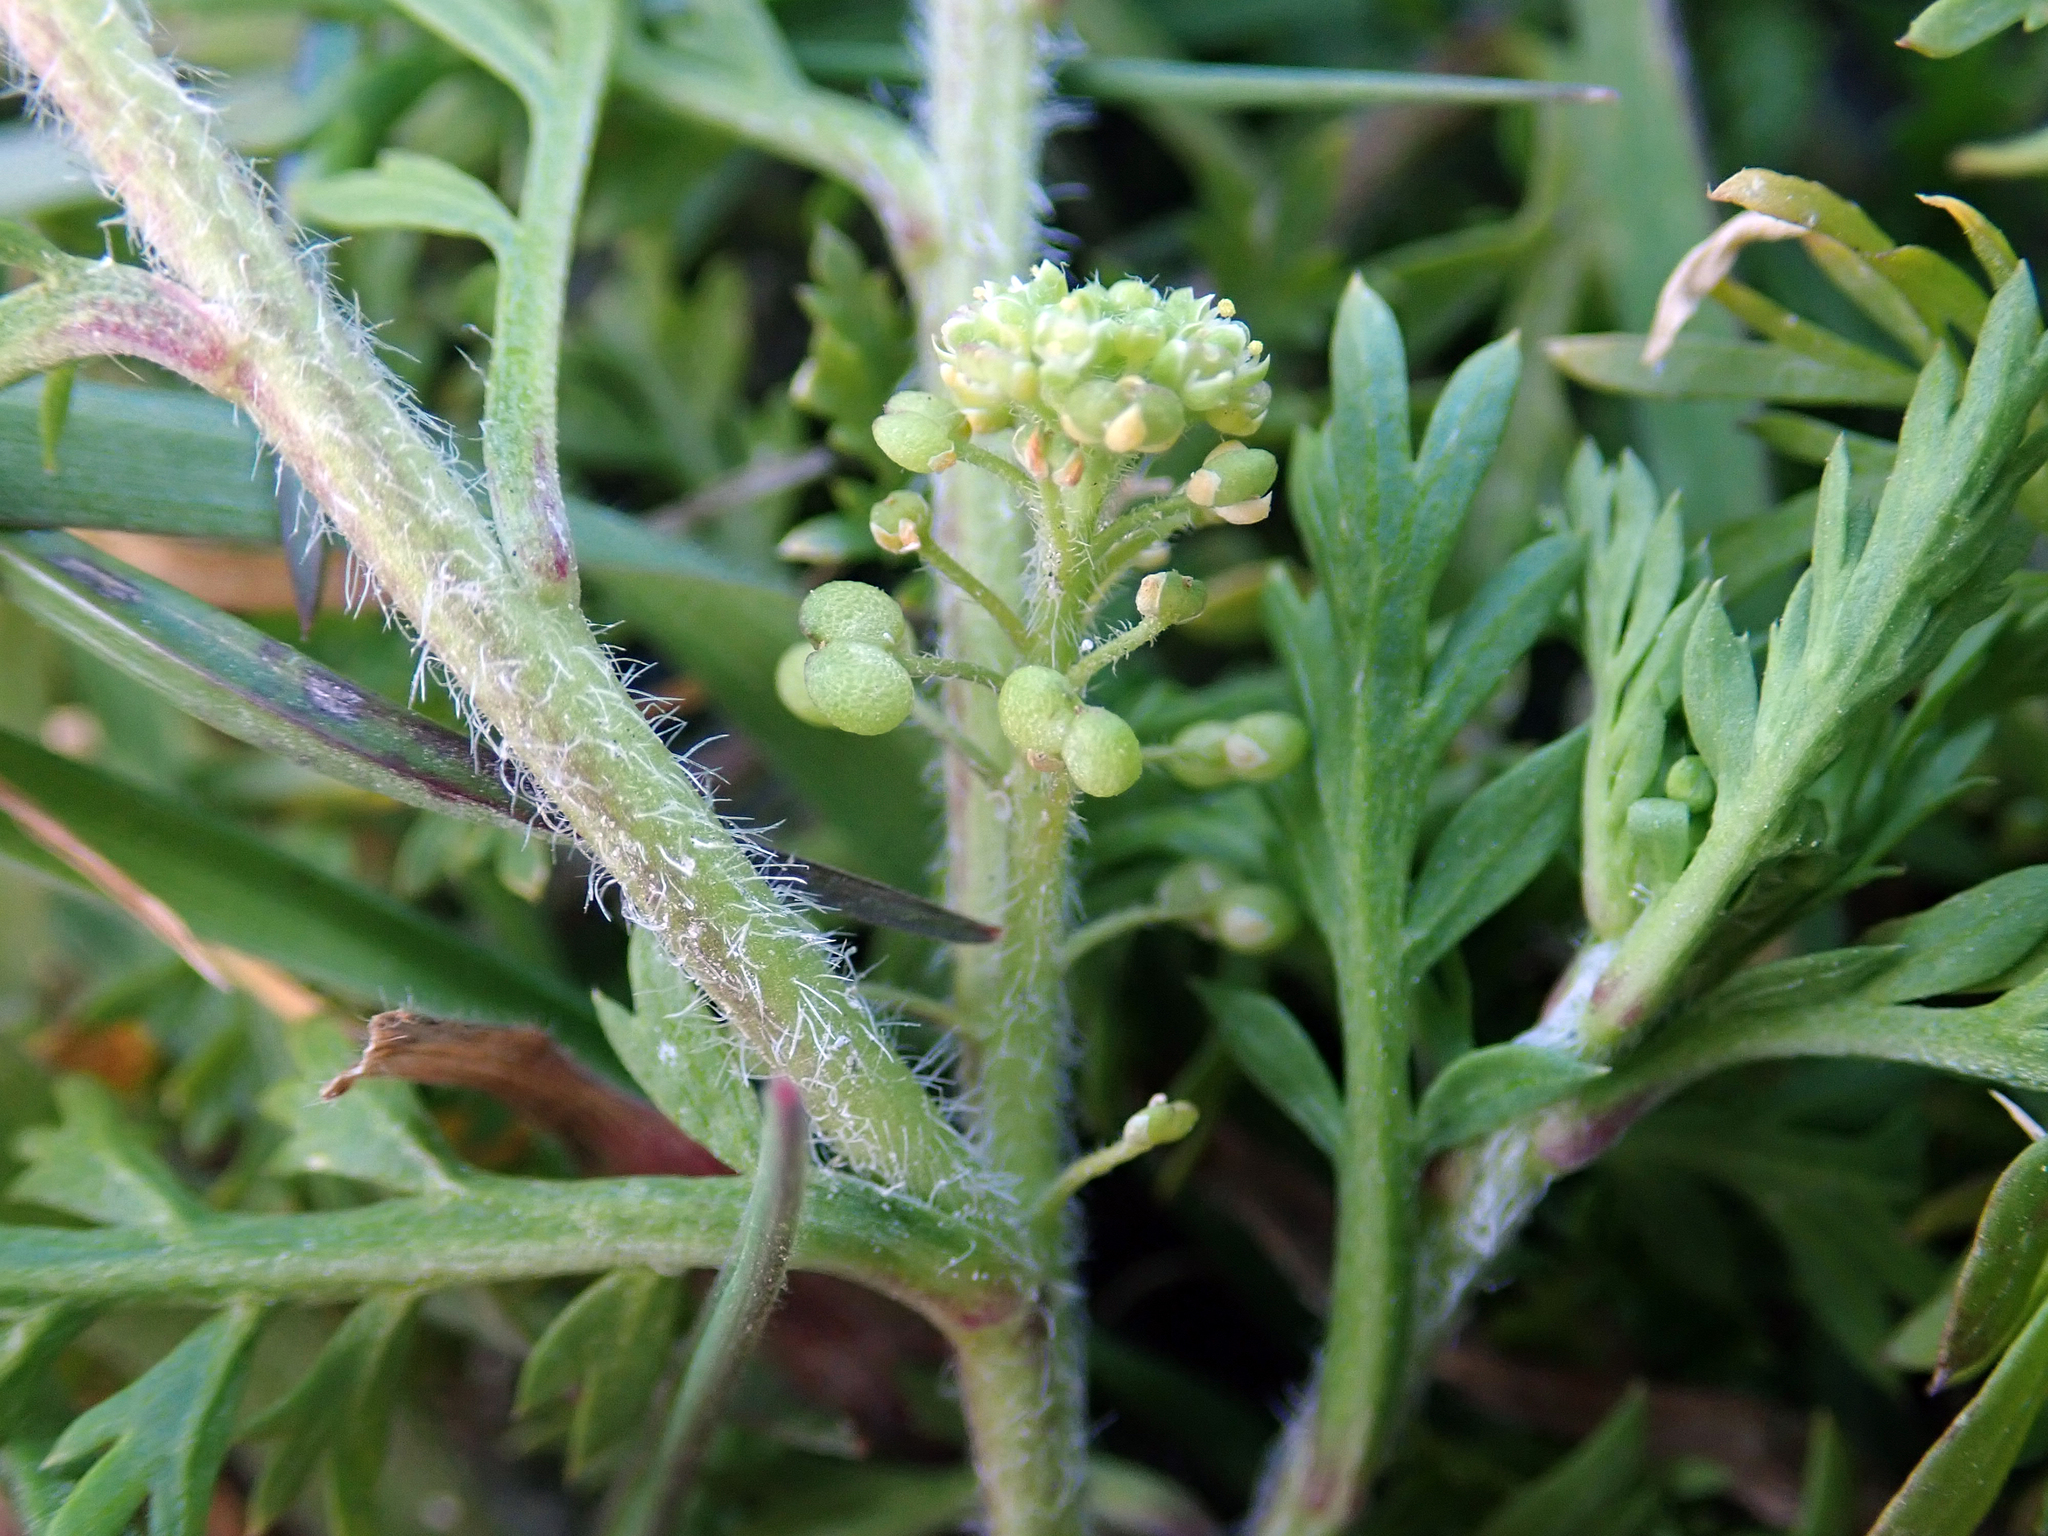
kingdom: Plantae
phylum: Tracheophyta
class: Magnoliopsida
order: Brassicales
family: Brassicaceae
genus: Lepidium
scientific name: Lepidium didymum
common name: Lesser swinecress
